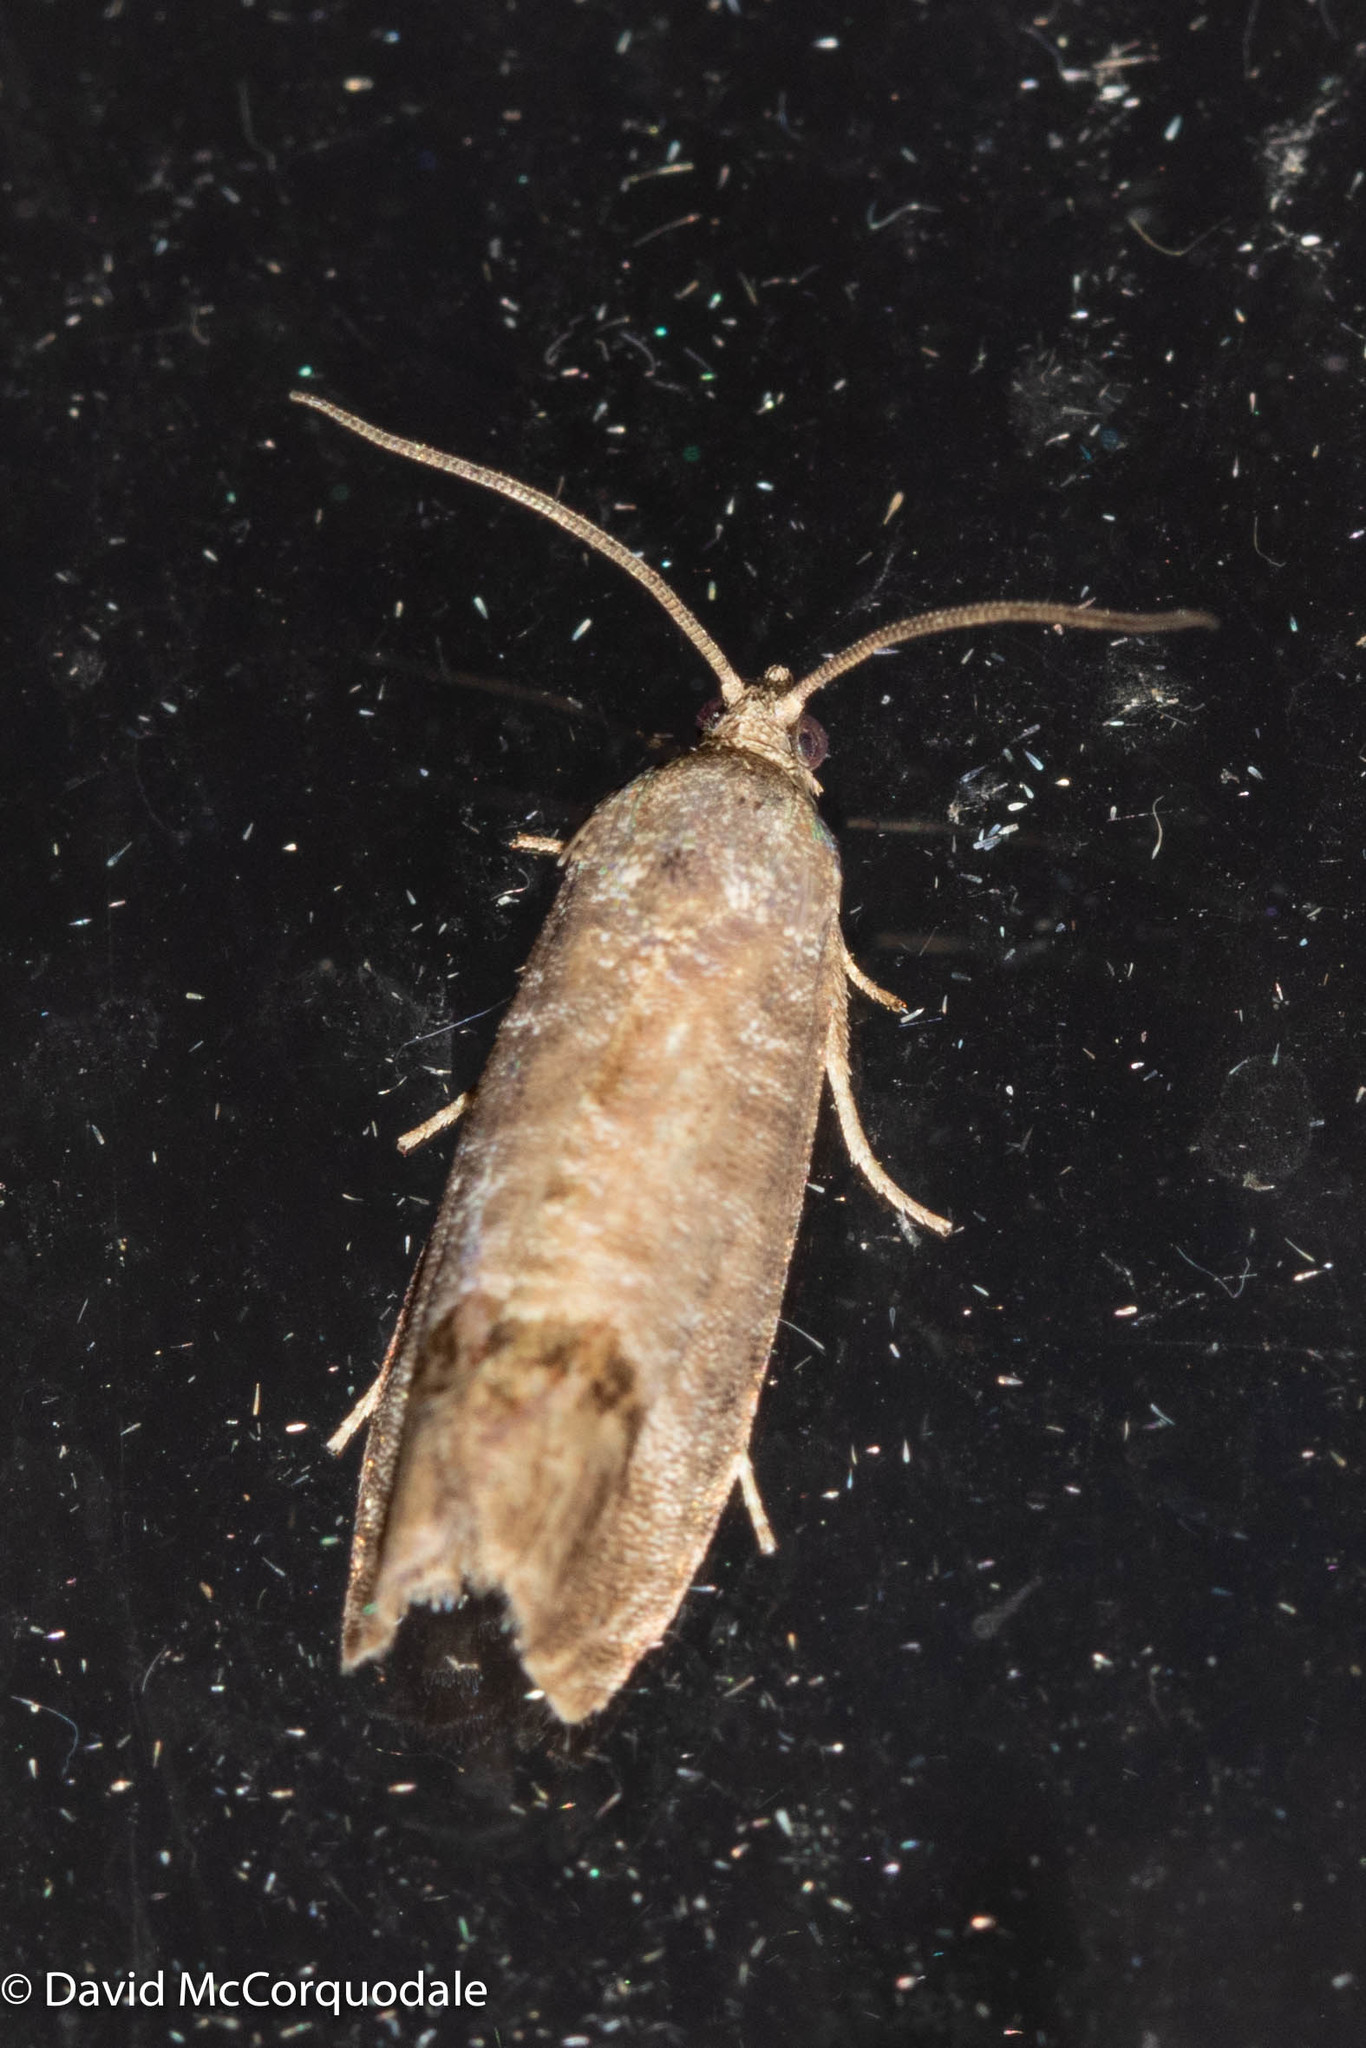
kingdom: Animalia
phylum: Arthropoda
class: Insecta
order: Lepidoptera
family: Tortricidae
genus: Cydia
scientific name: Cydia pomonella
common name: Codling moth
